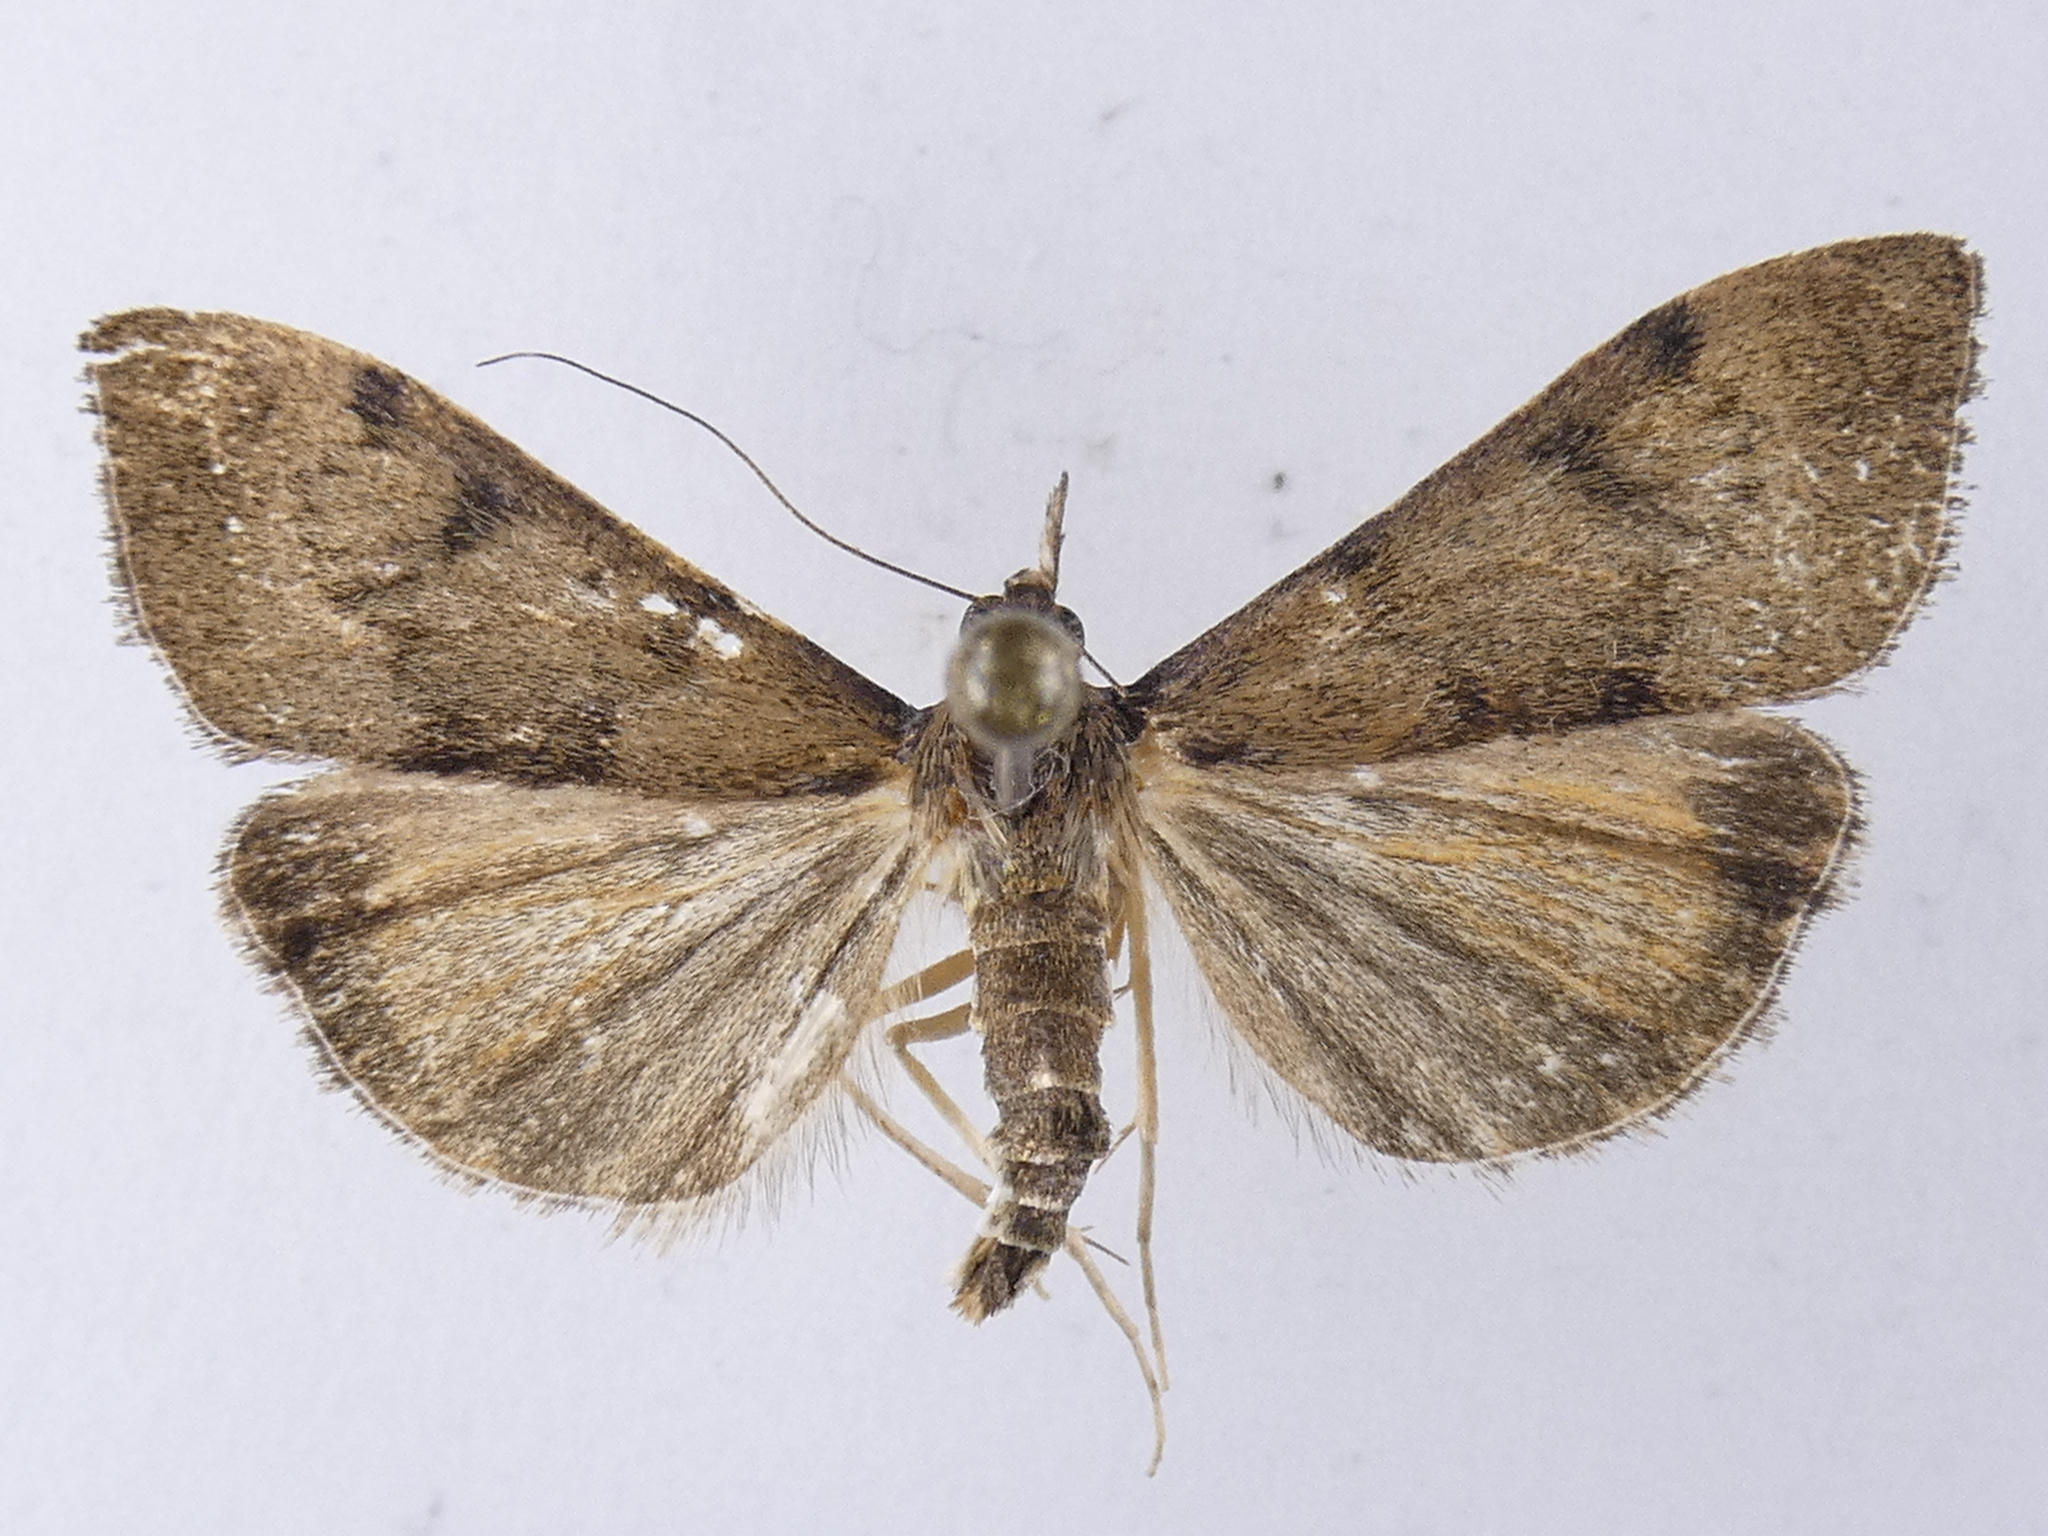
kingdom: Animalia
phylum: Arthropoda
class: Insecta
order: Lepidoptera
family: Crambidae
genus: Uresiphita
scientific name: Uresiphita
